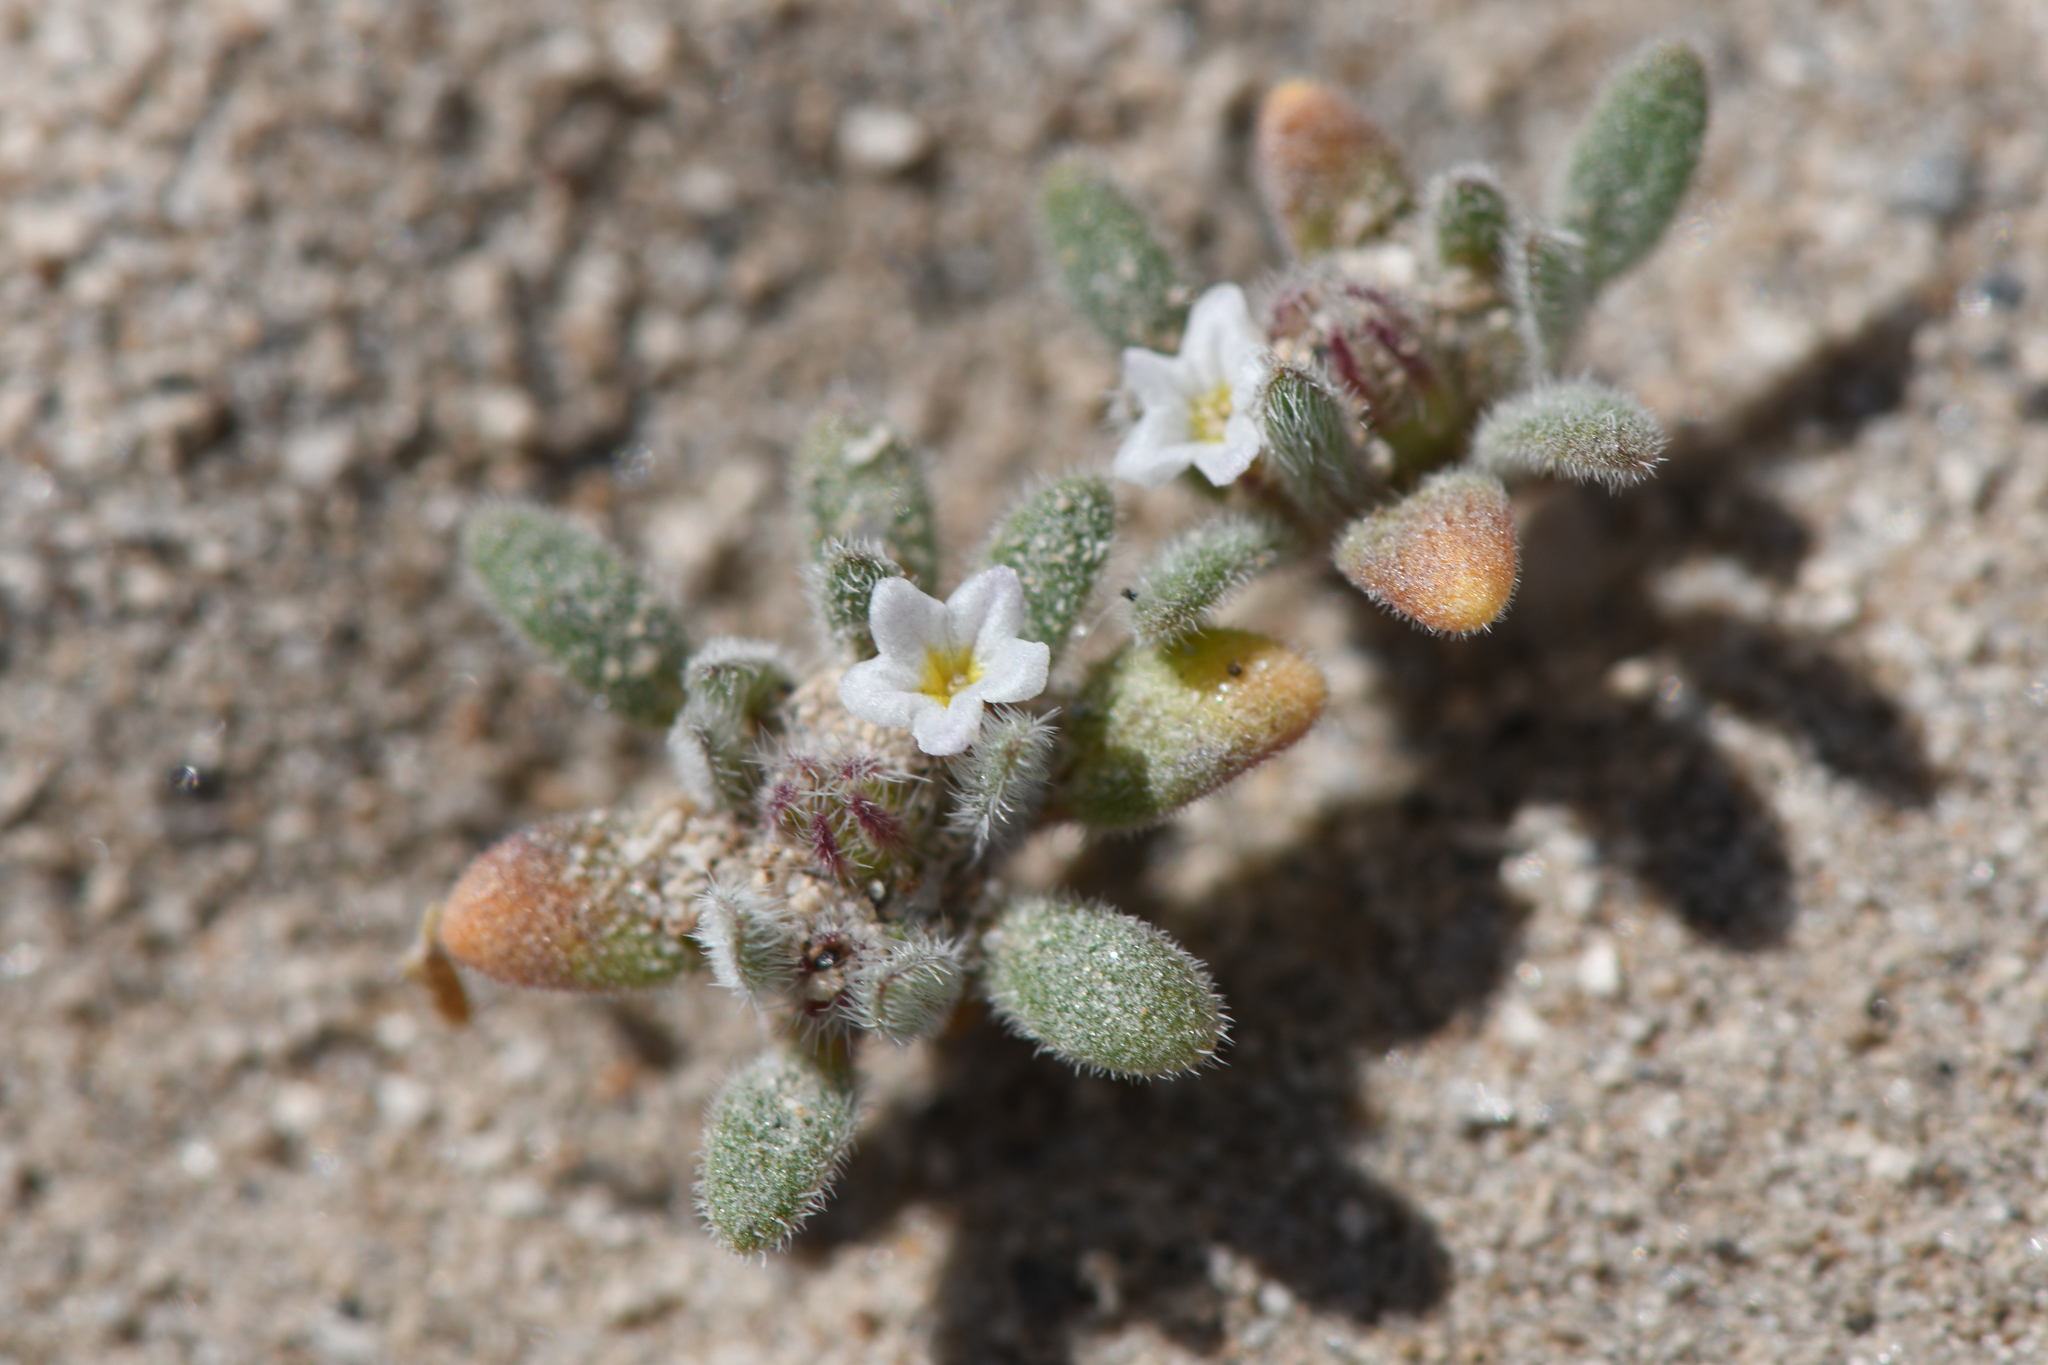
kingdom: Plantae
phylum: Tracheophyta
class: Magnoliopsida
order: Boraginales
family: Namaceae
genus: Nama
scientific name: Nama densa
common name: Leafy nama
